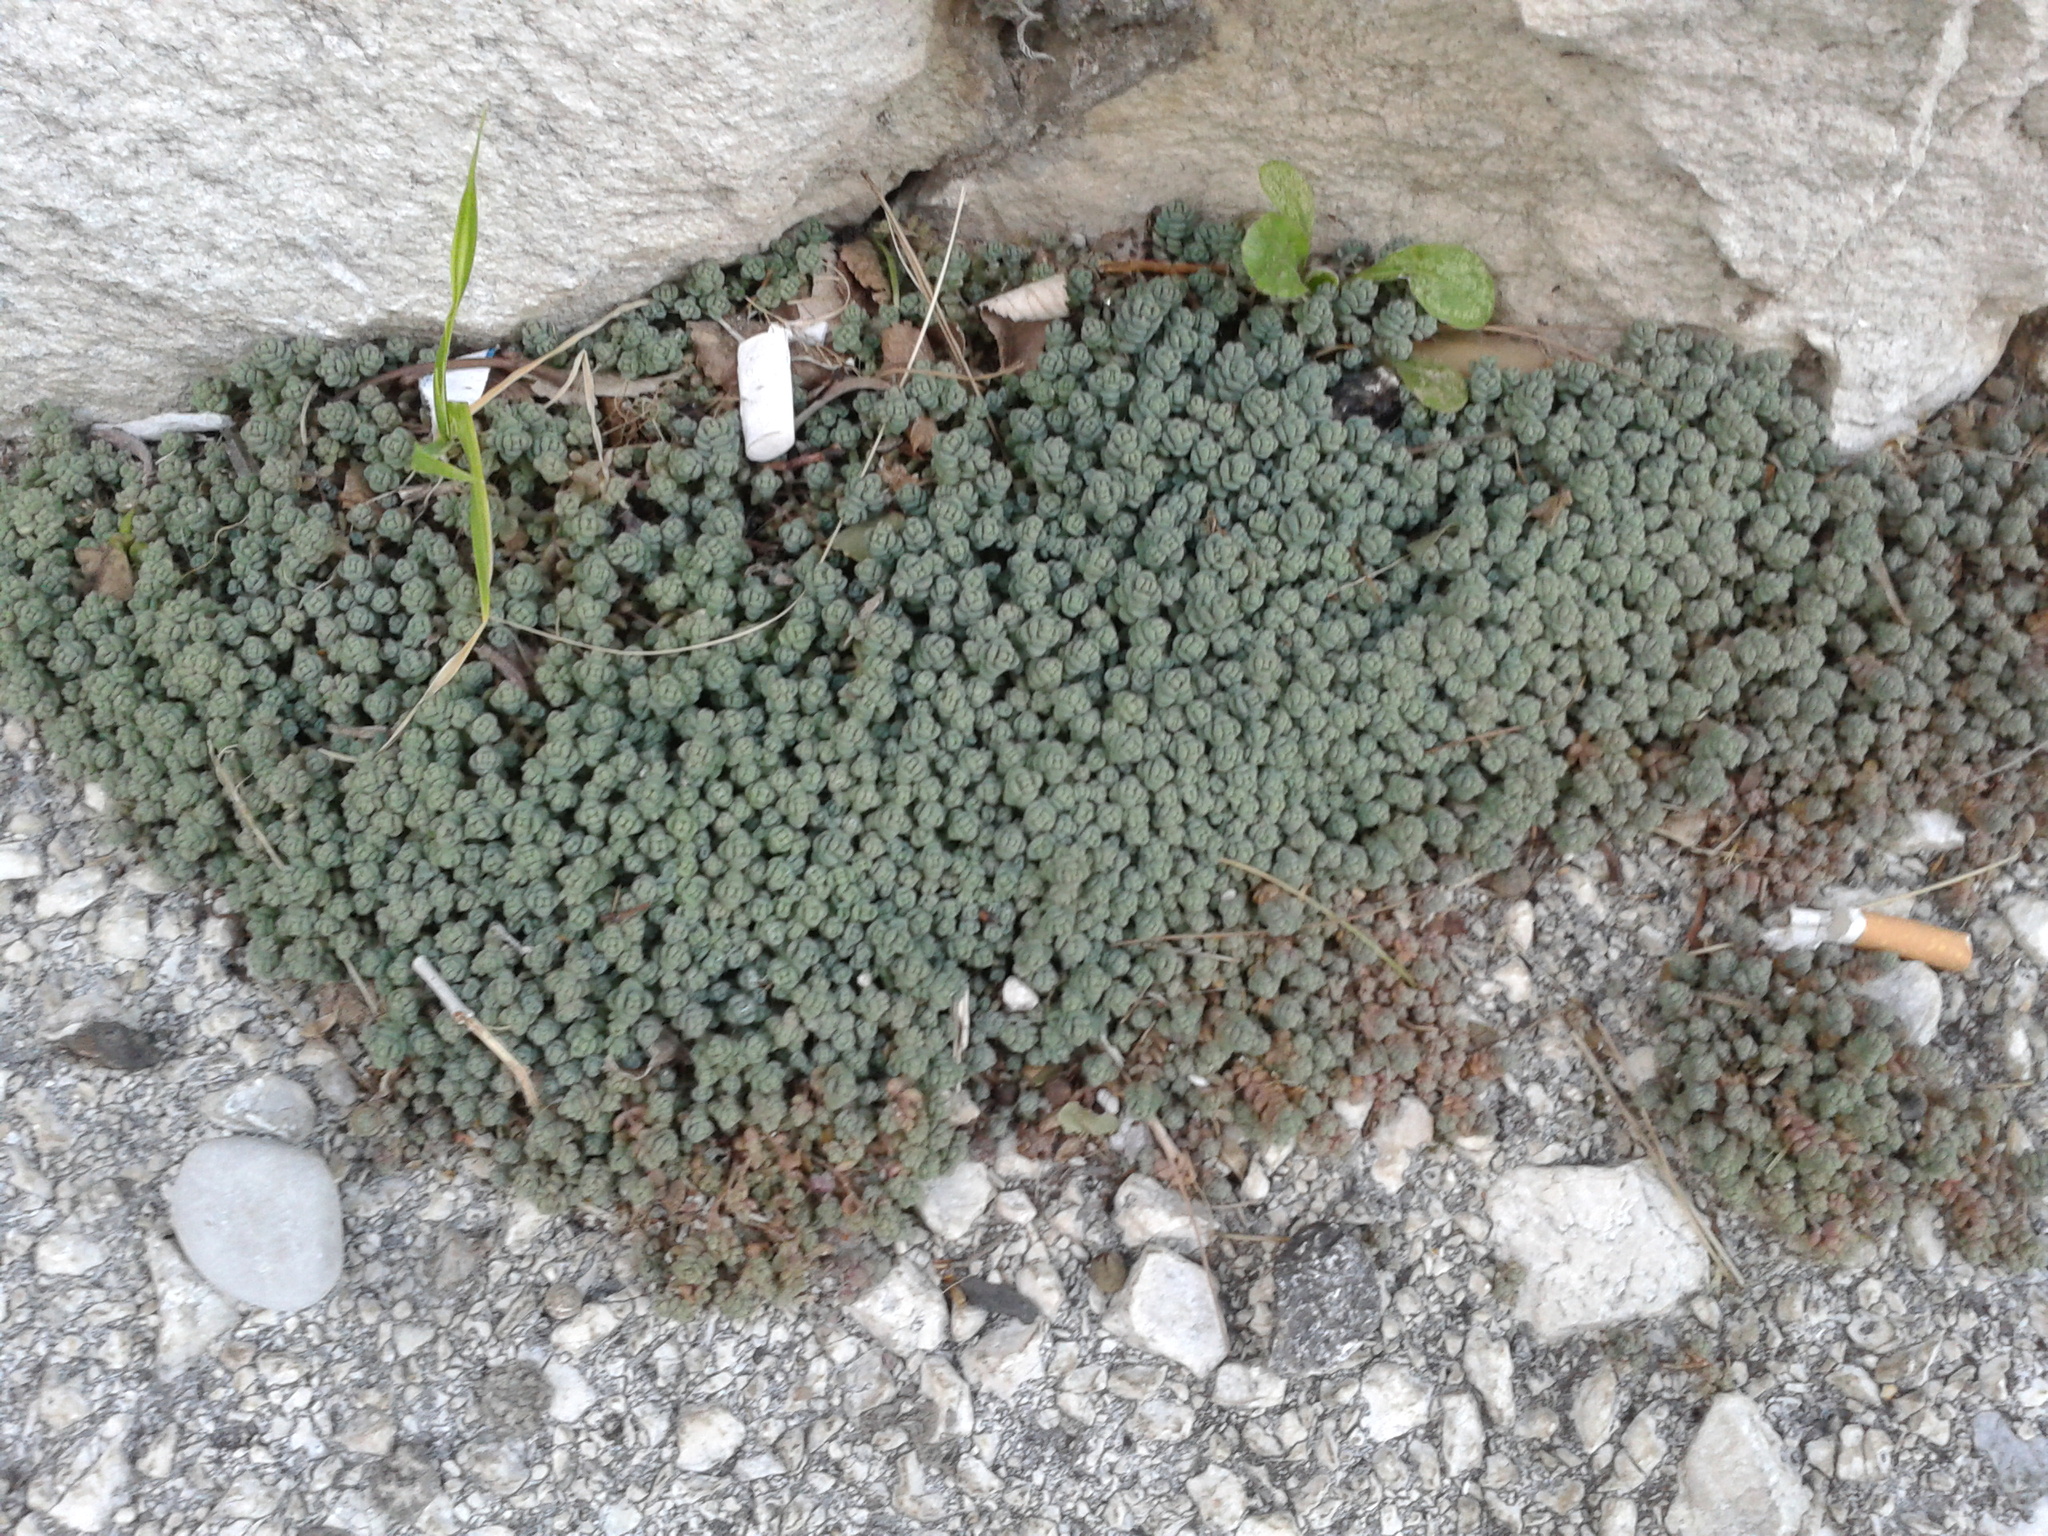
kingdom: Plantae
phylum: Tracheophyta
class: Magnoliopsida
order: Saxifragales
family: Crassulaceae
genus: Sedum
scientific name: Sedum dasyphyllum
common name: Thick-leaf stonecrop
